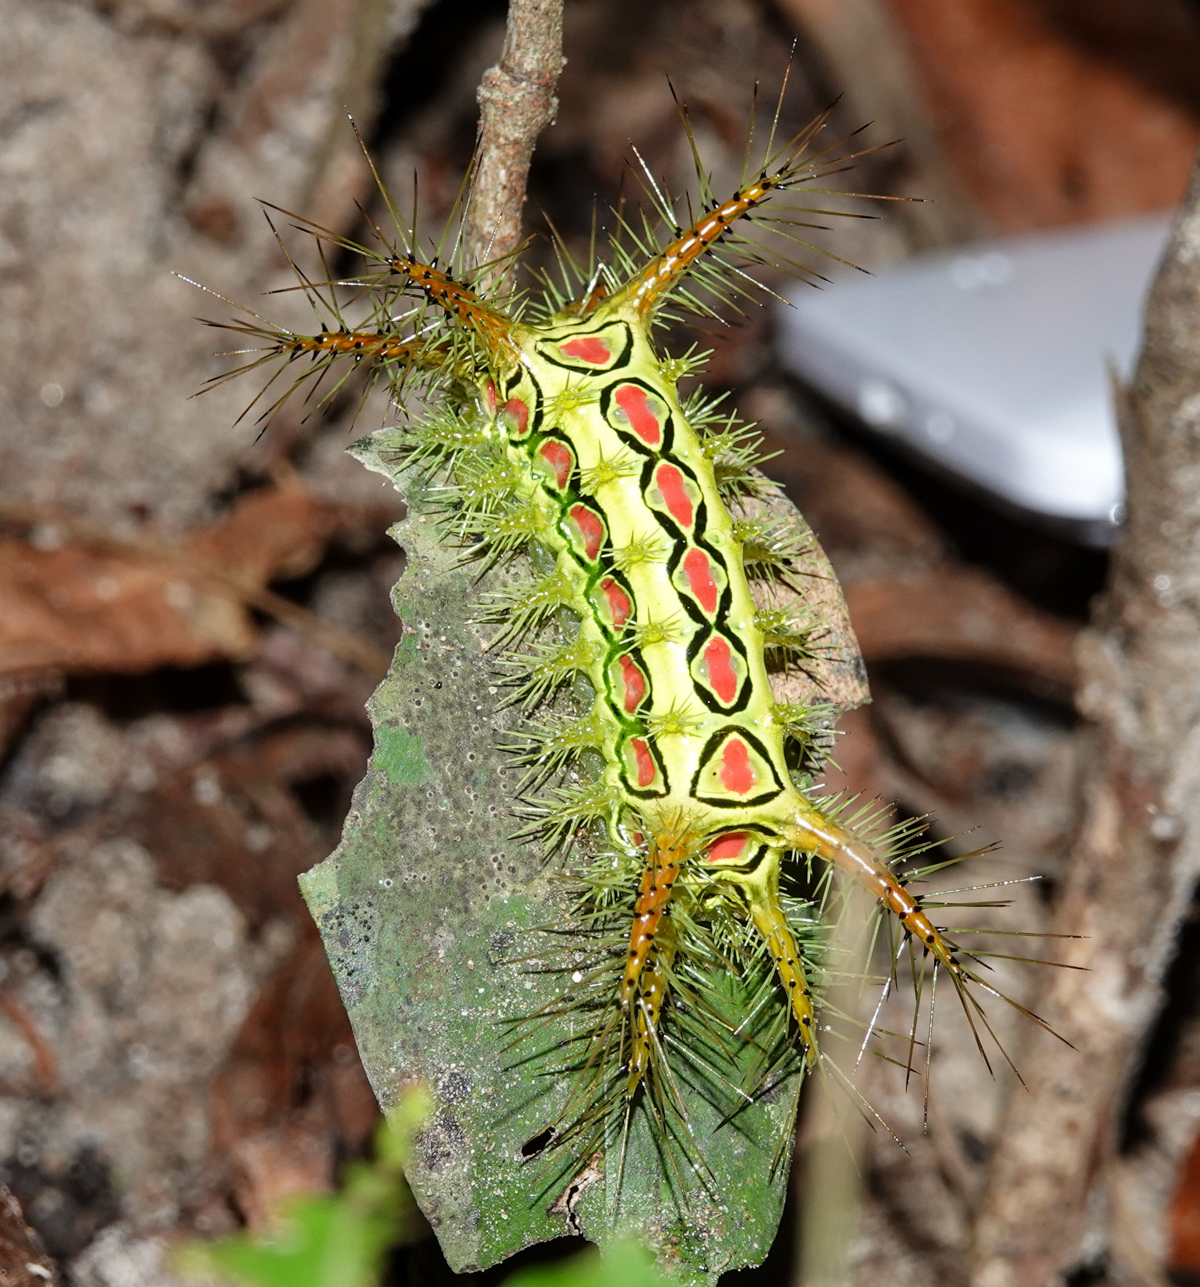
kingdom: Animalia
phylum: Arthropoda
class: Insecta
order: Lepidoptera
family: Limacodidae
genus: Phocoderma
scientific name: Phocoderma velutina
